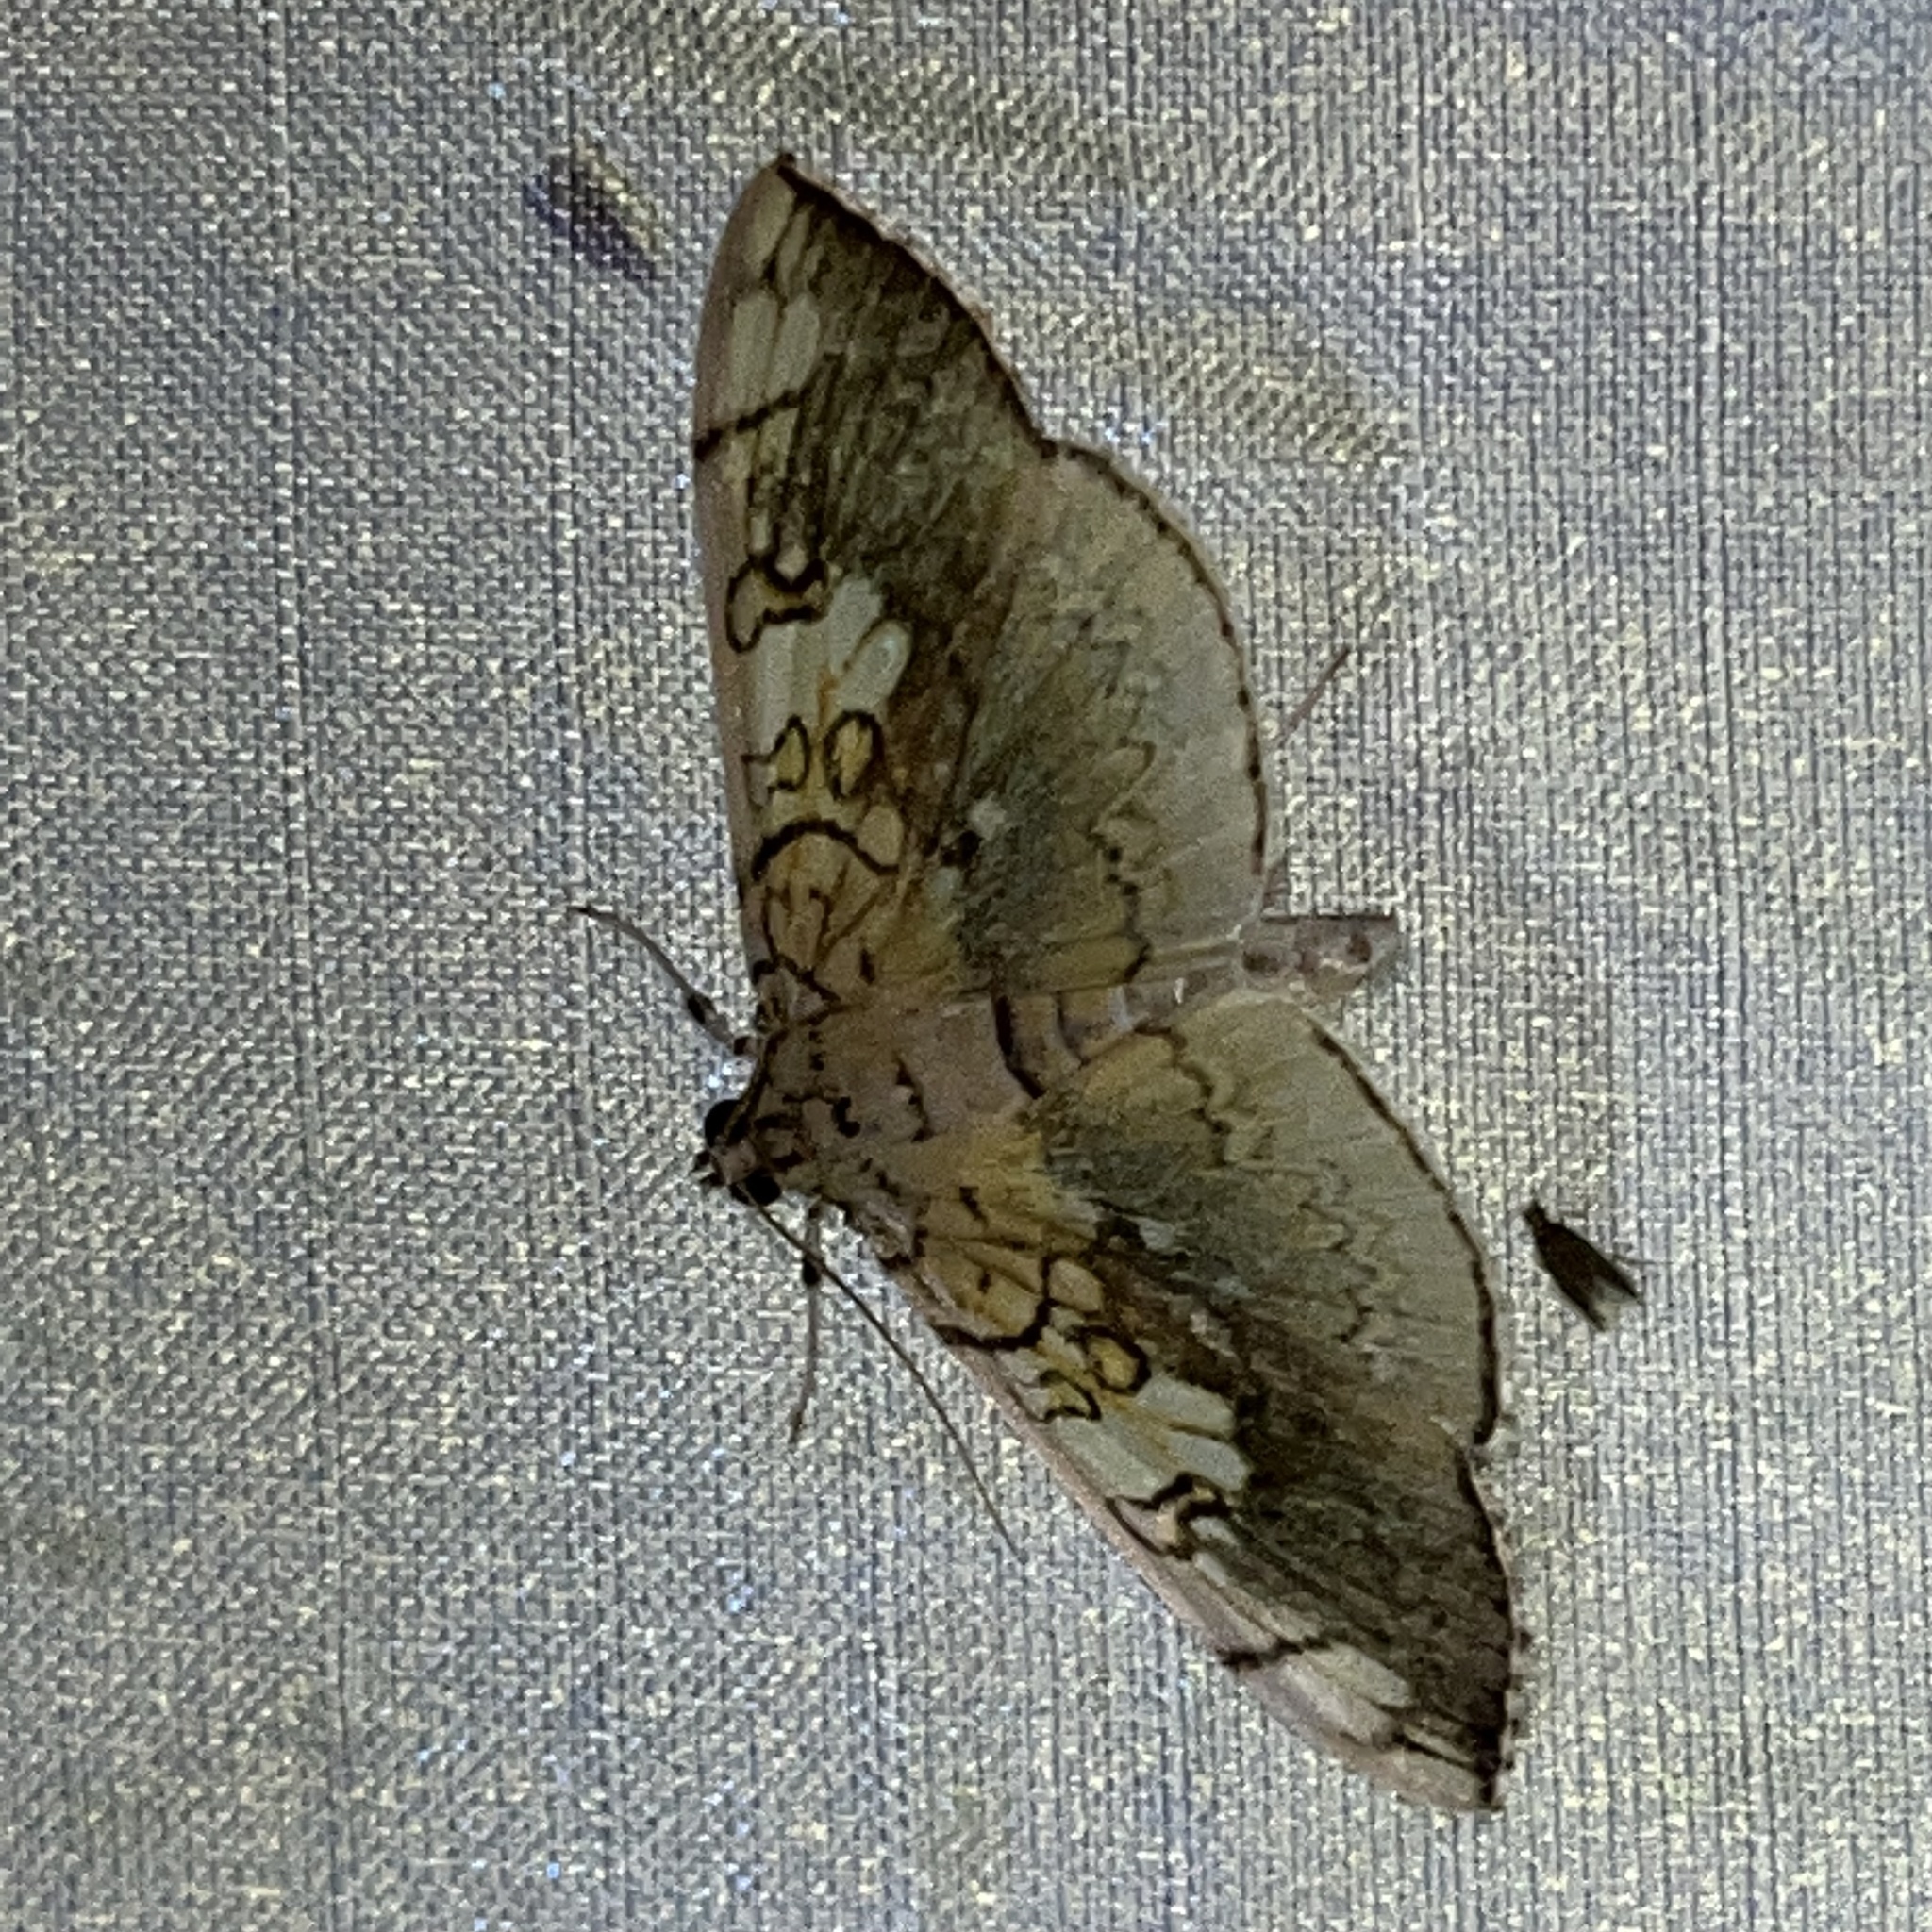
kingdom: Animalia
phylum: Arthropoda
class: Insecta
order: Lepidoptera
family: Crambidae
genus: Pantographa
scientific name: Pantographa limata
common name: Basswood leafroller moth
